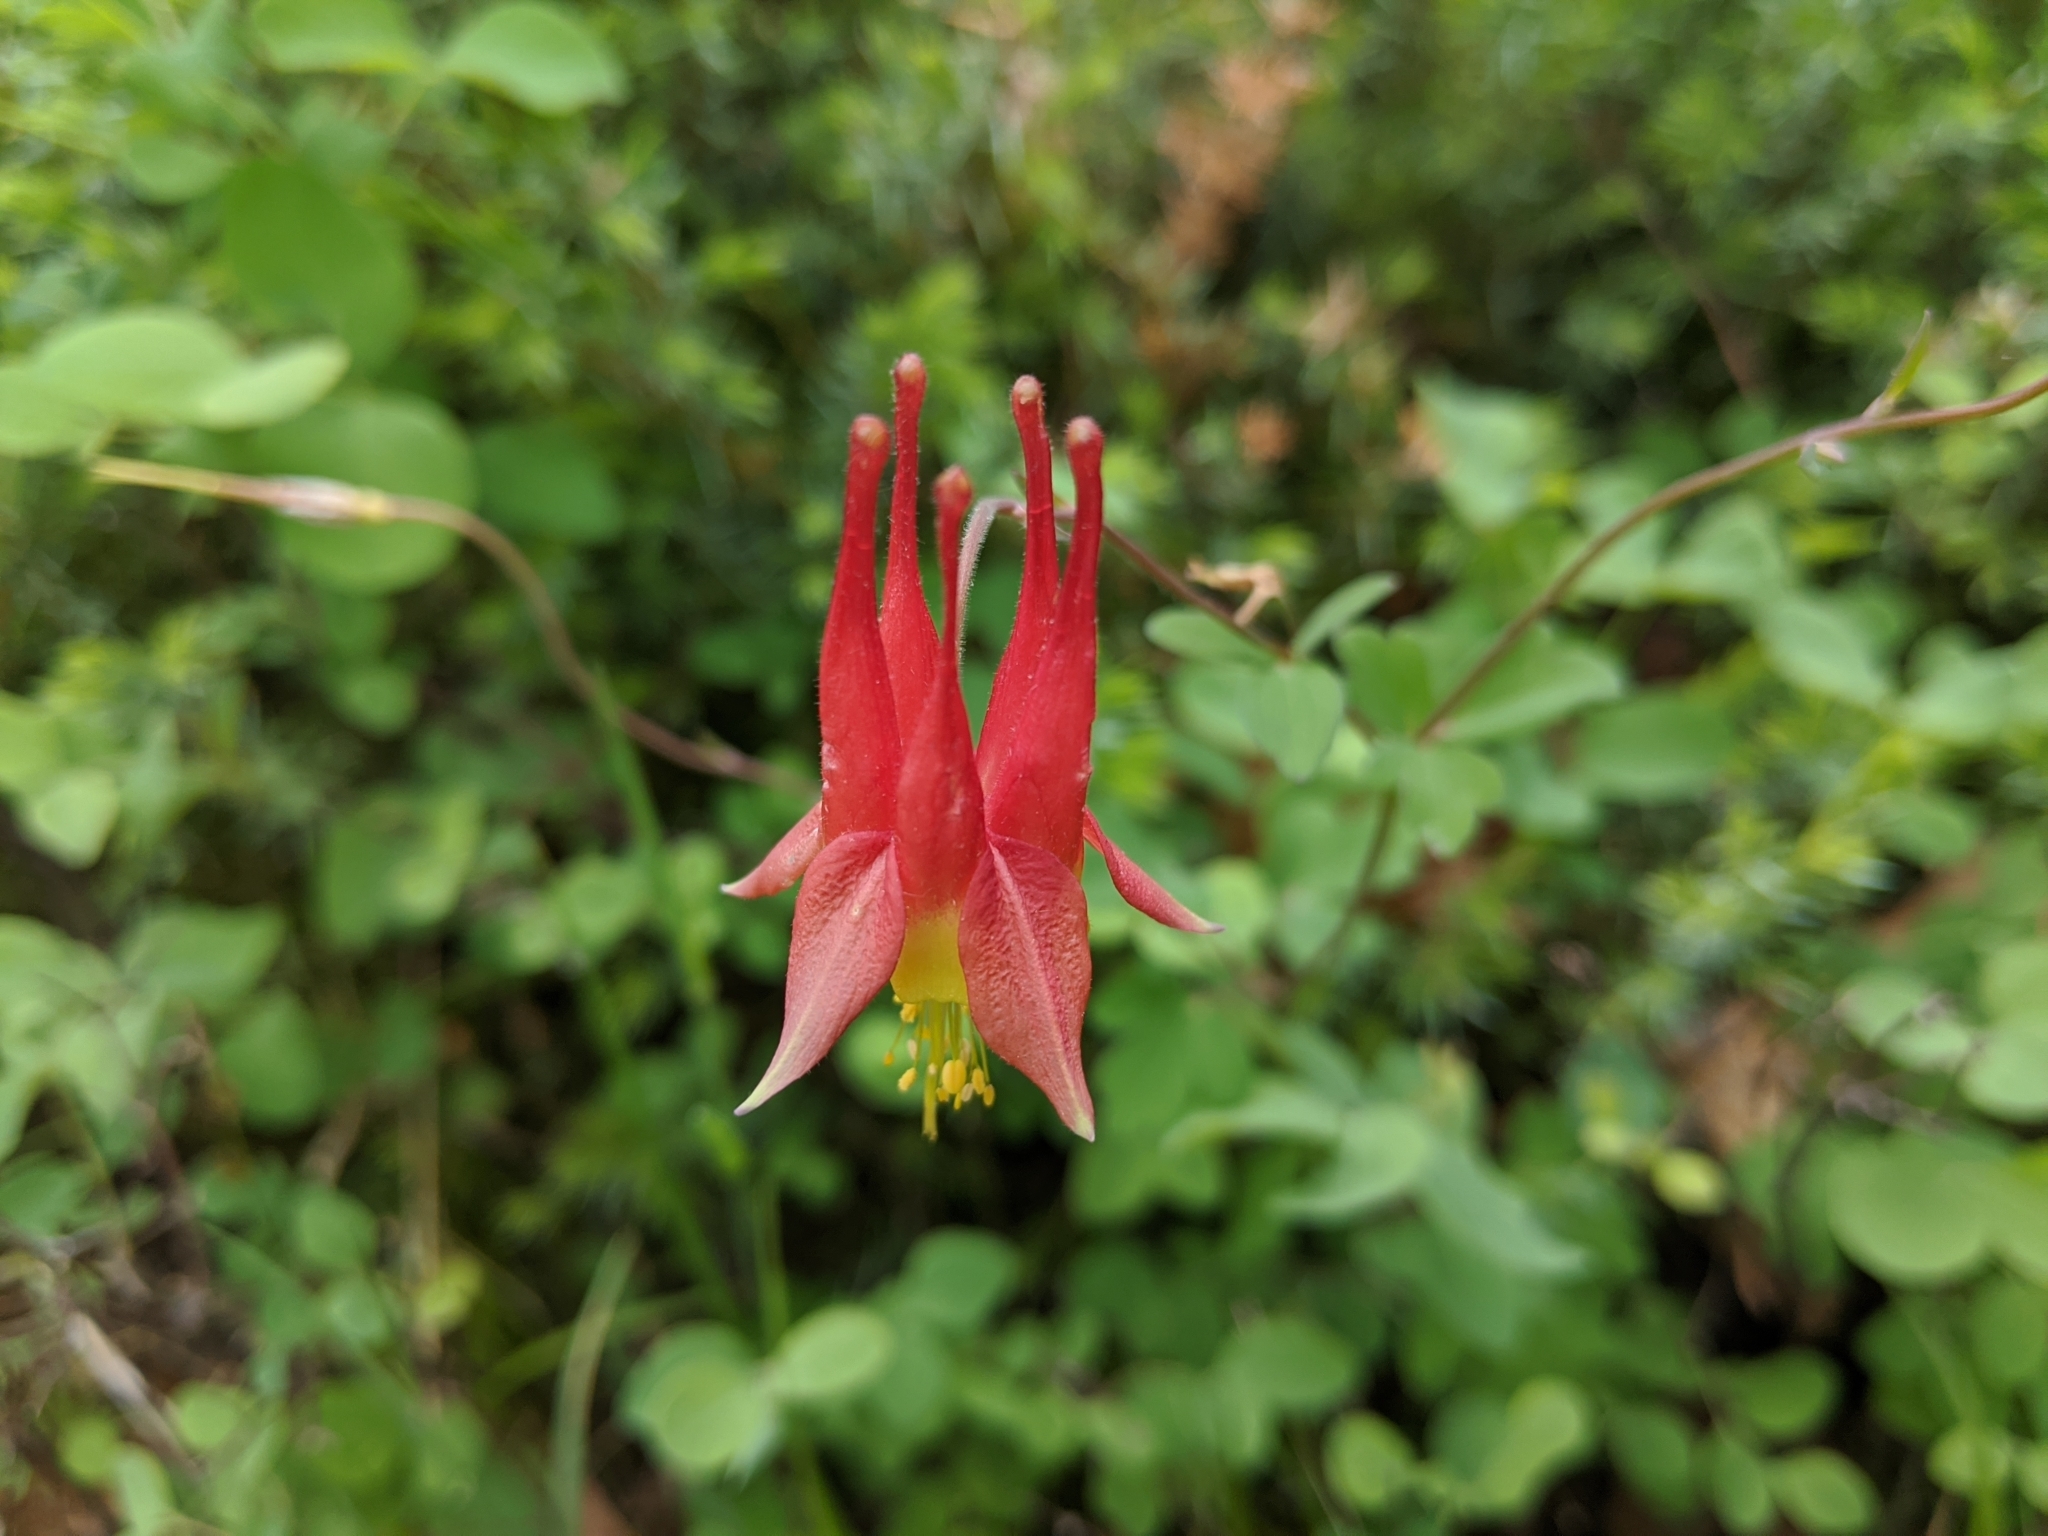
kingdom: Plantae
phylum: Tracheophyta
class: Magnoliopsida
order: Ranunculales
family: Ranunculaceae
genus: Aquilegia
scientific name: Aquilegia canadensis
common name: American columbine
